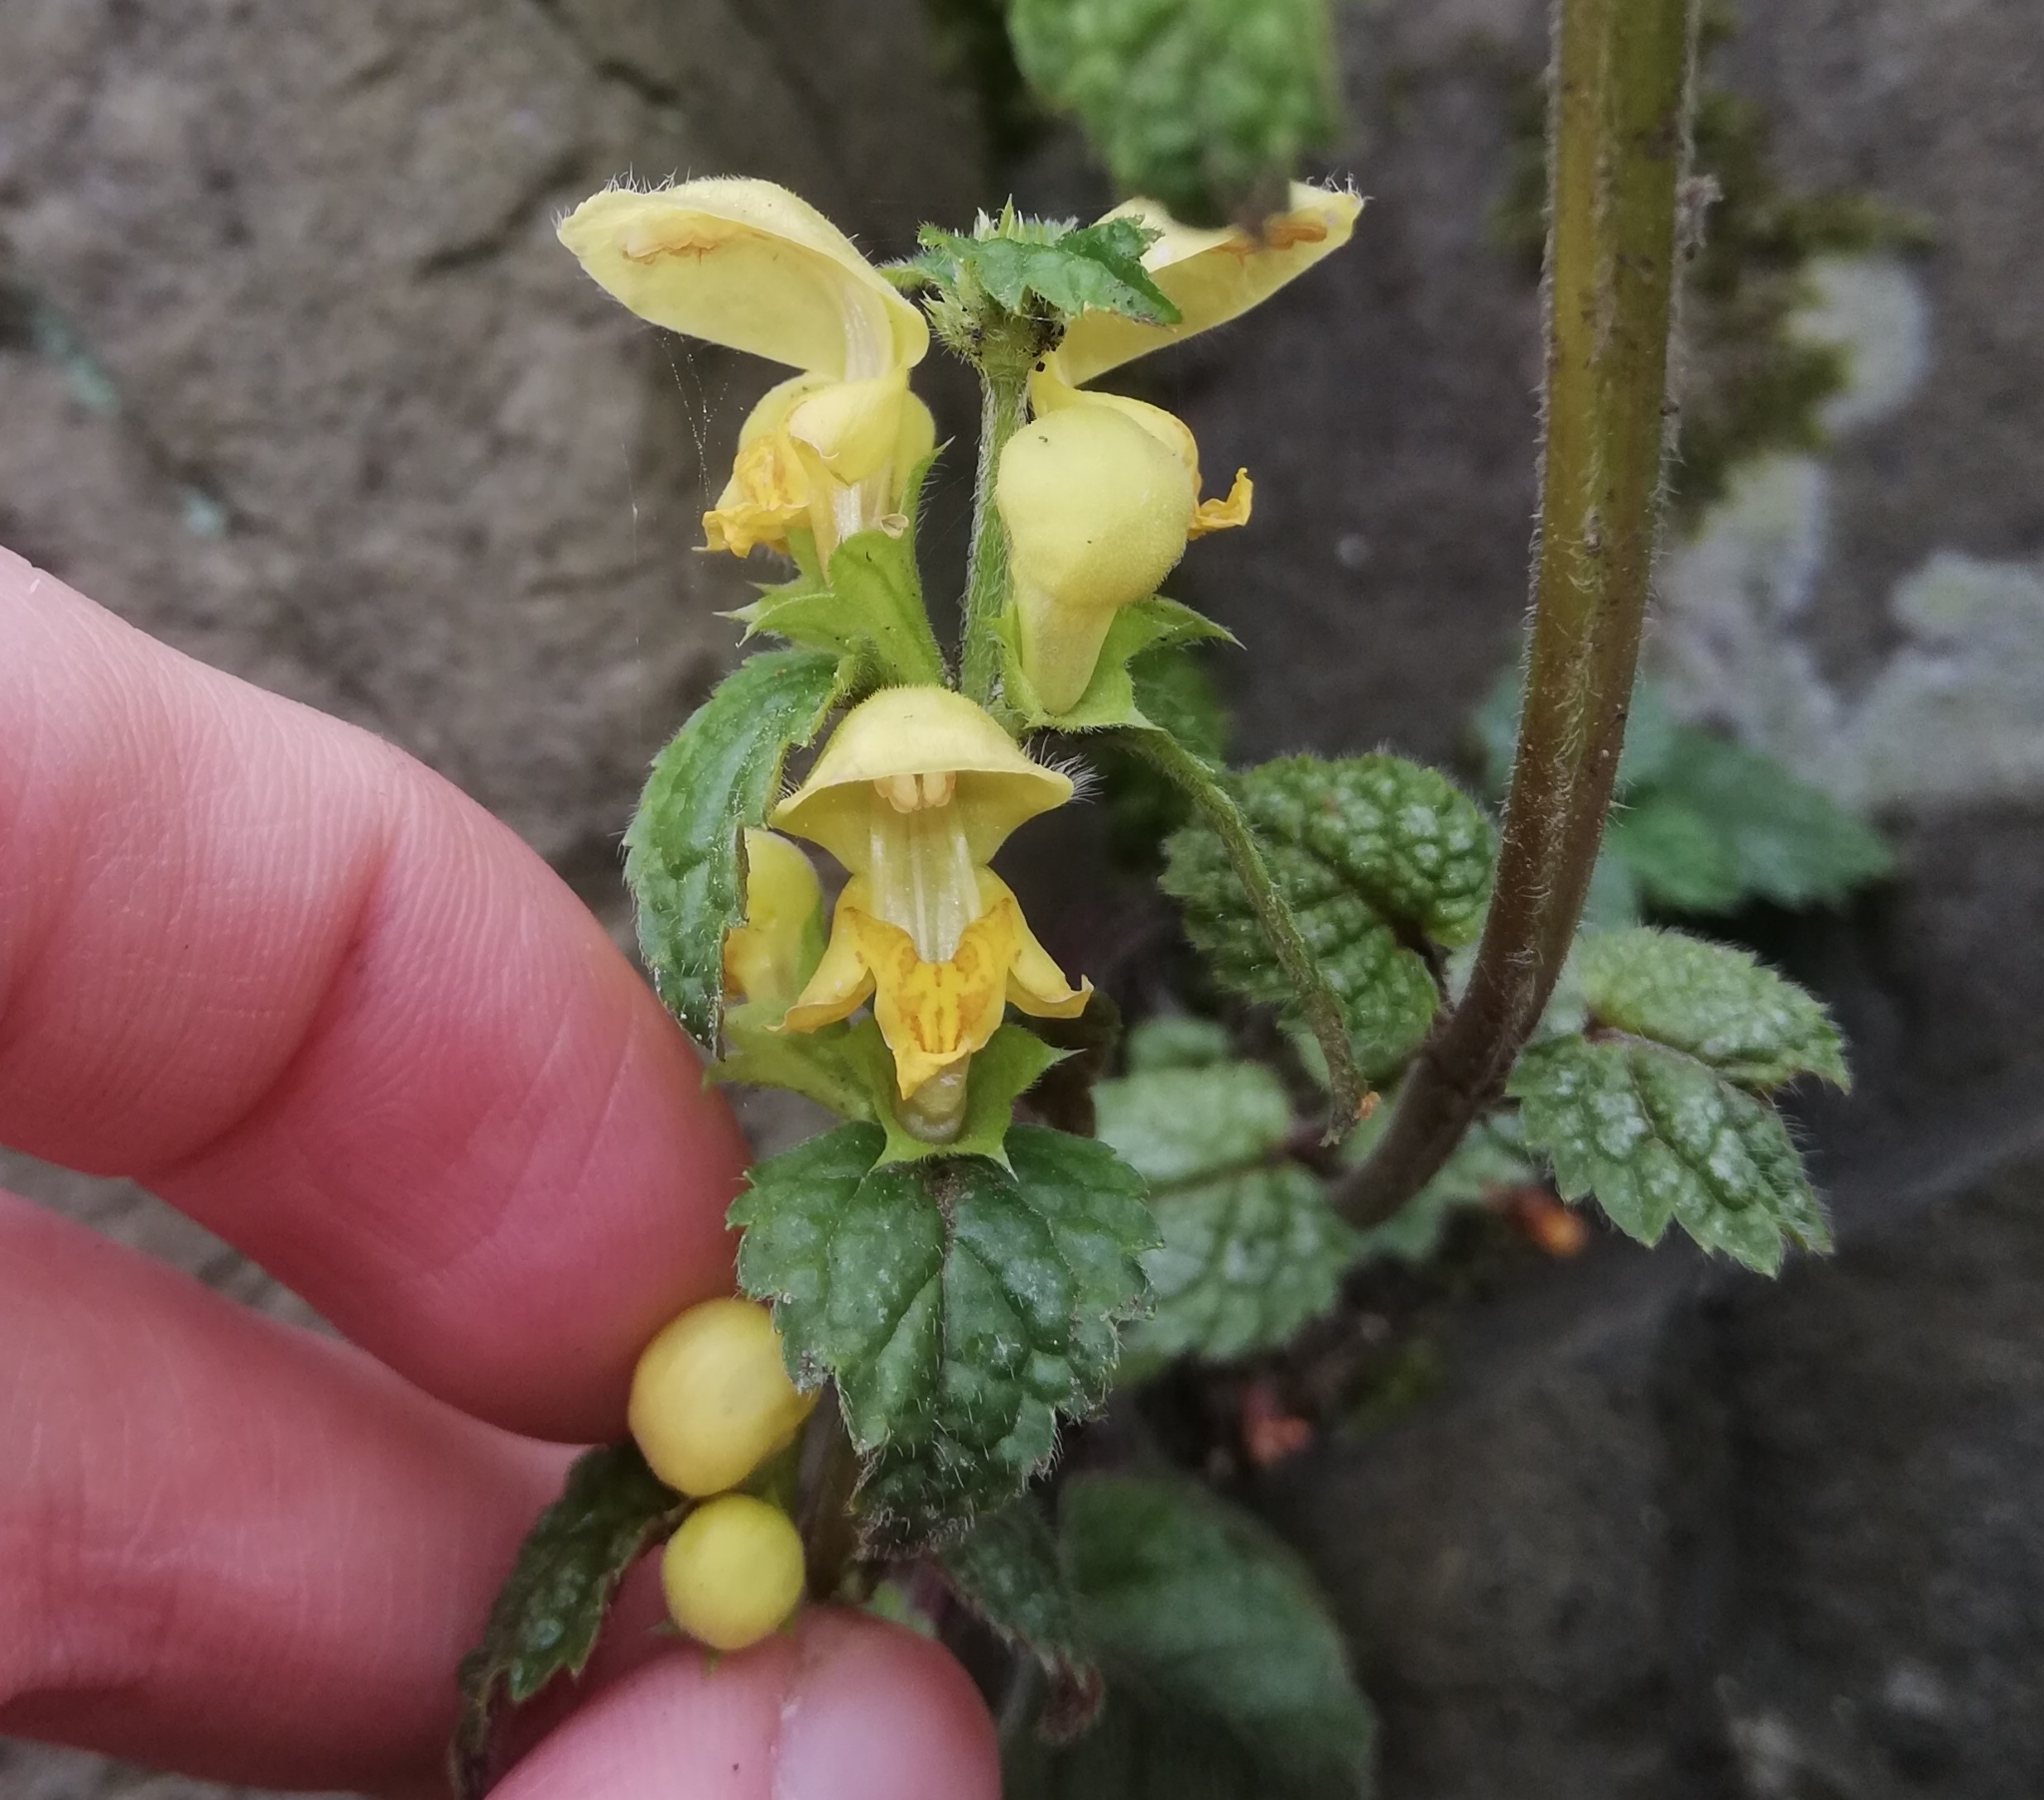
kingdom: Plantae
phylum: Tracheophyta
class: Magnoliopsida
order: Lamiales
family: Lamiaceae
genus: Lamium
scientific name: Lamium galeobdolon
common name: Yellow archangel
